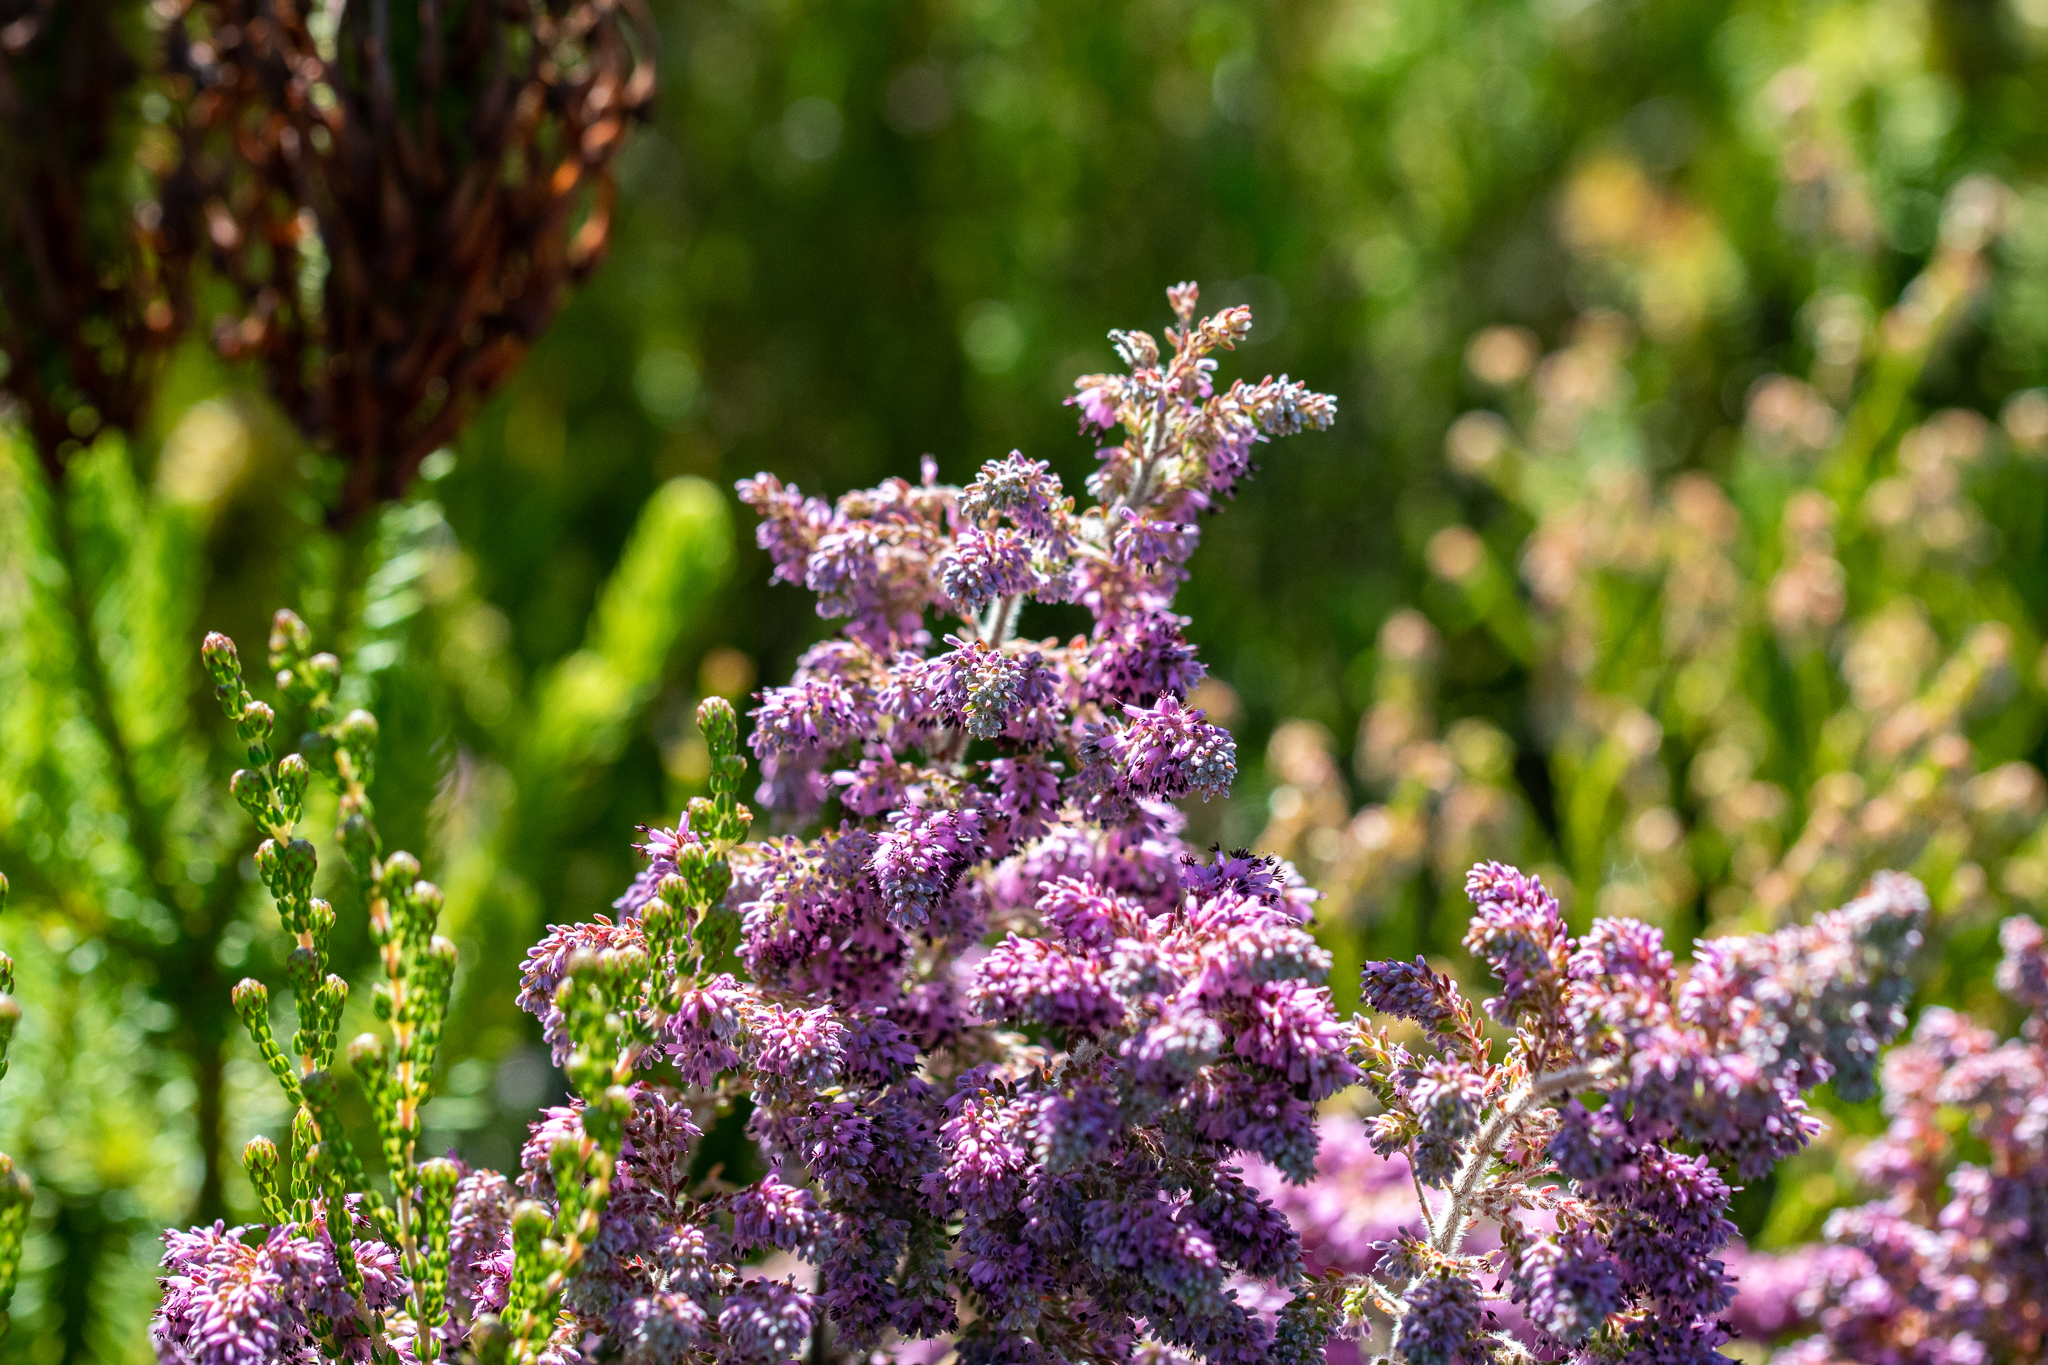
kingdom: Plantae
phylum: Tracheophyta
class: Magnoliopsida
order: Ericales
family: Ericaceae
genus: Erica
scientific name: Erica williamsiorum
